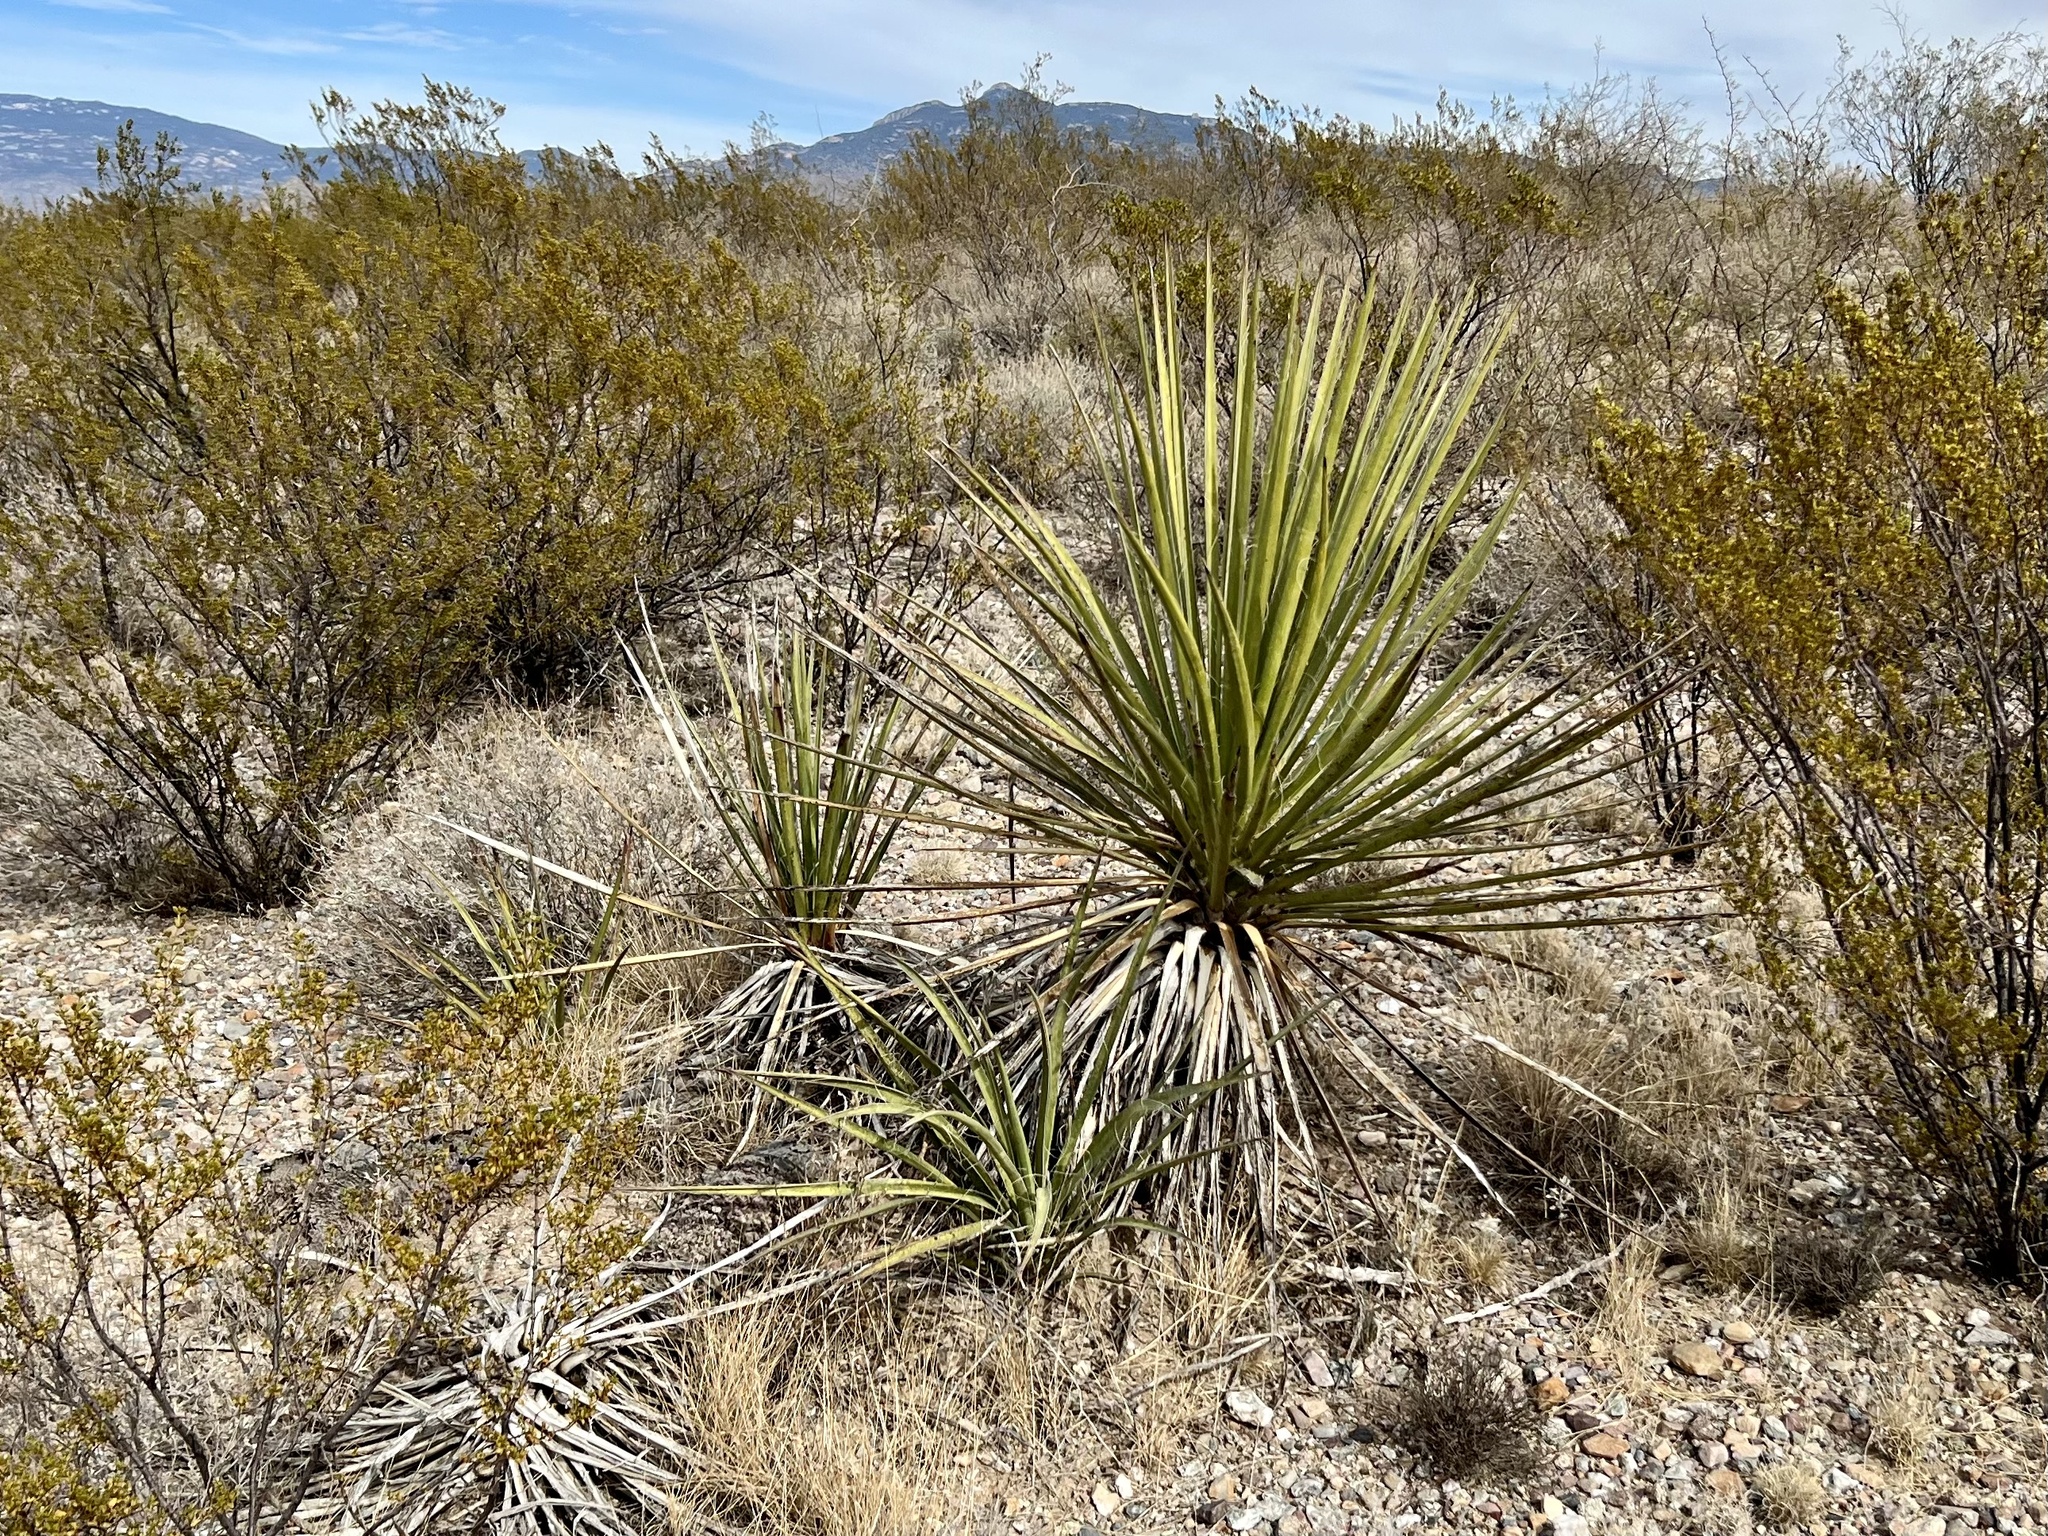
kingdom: Plantae
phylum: Tracheophyta
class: Liliopsida
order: Asparagales
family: Asparagaceae
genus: Yucca
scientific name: Yucca baccata
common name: Banana yucca
